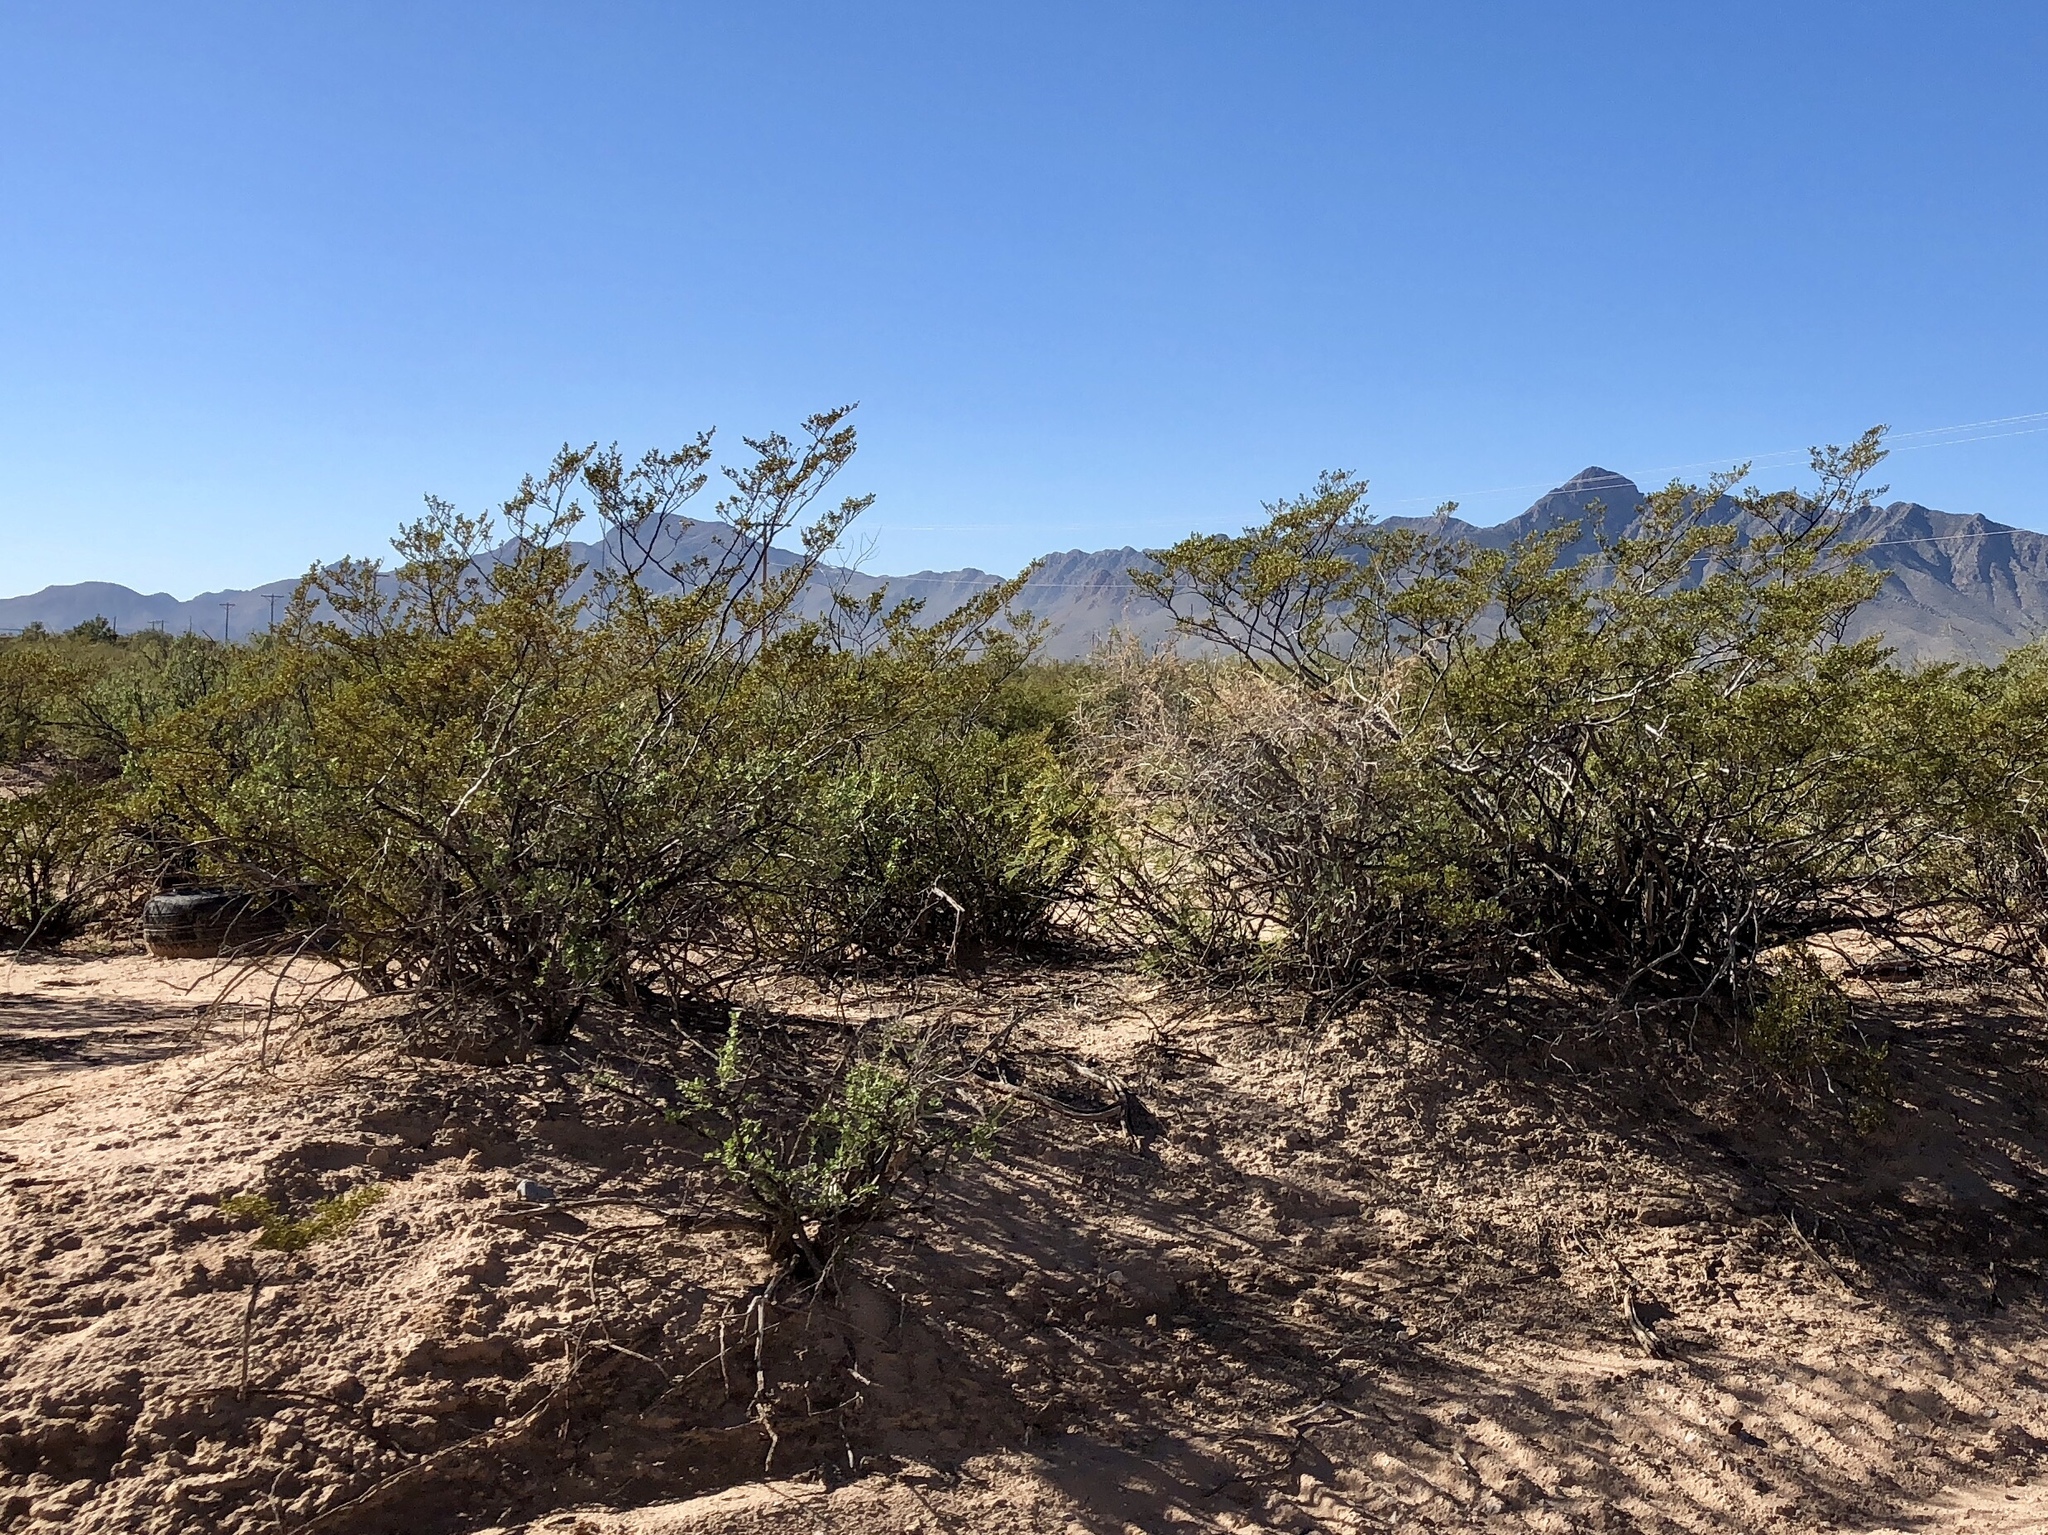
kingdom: Plantae
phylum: Tracheophyta
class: Magnoliopsida
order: Zygophyllales
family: Zygophyllaceae
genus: Larrea
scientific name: Larrea tridentata
